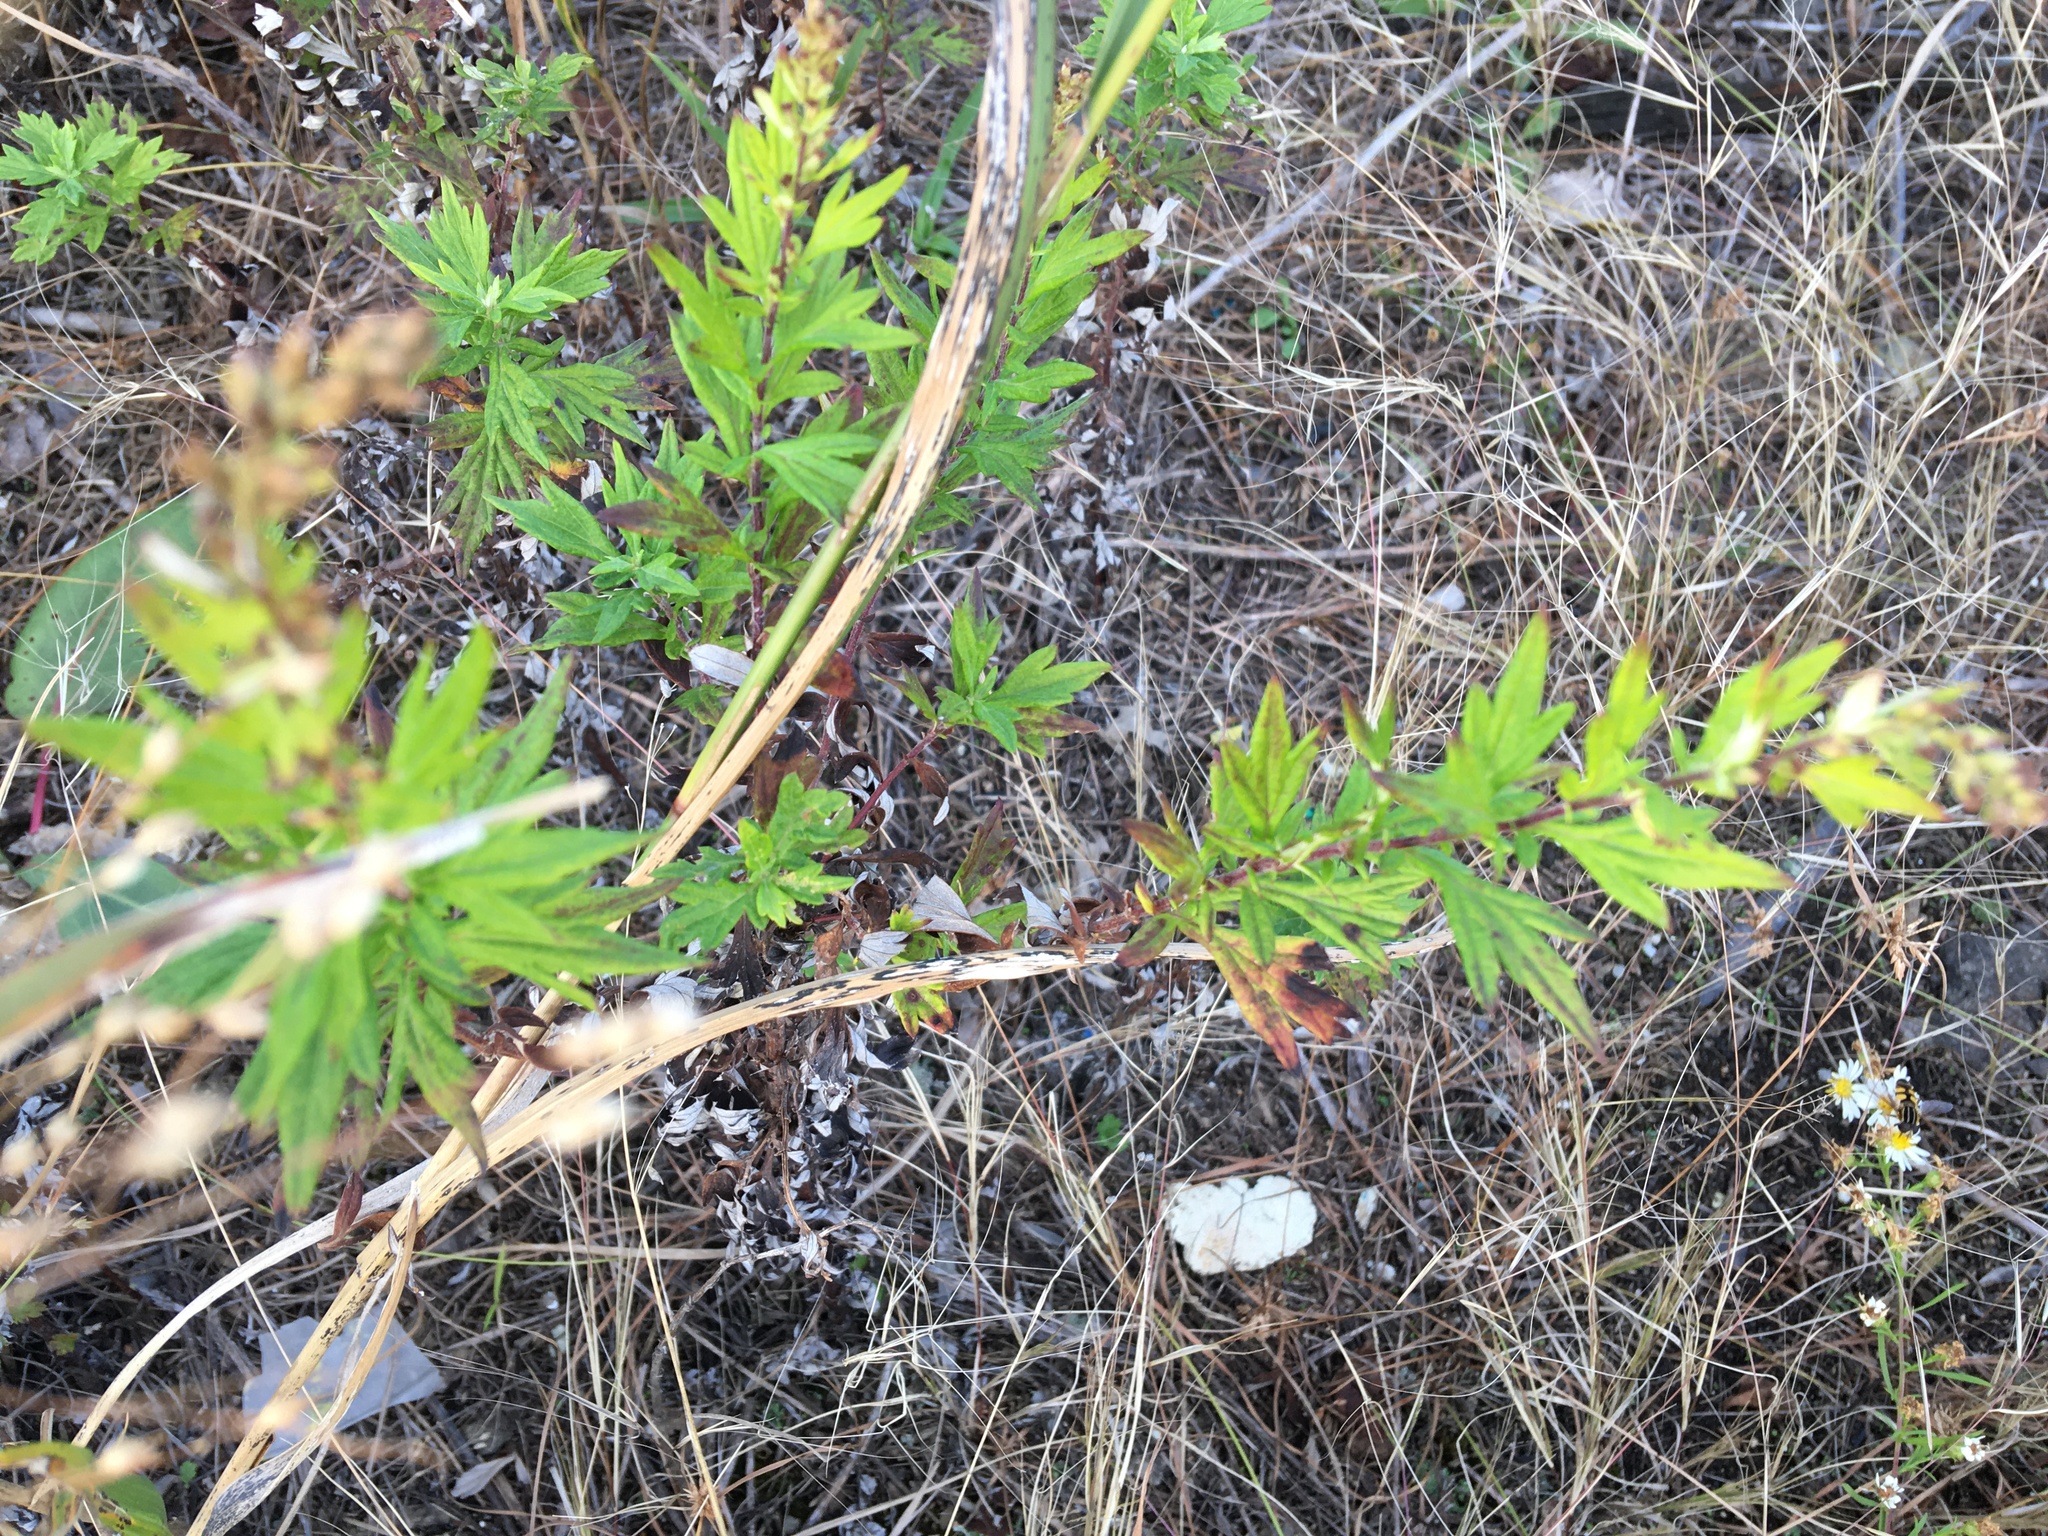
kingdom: Plantae
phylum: Tracheophyta
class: Magnoliopsida
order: Asterales
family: Asteraceae
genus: Artemisia
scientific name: Artemisia vulgaris
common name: Mugwort
